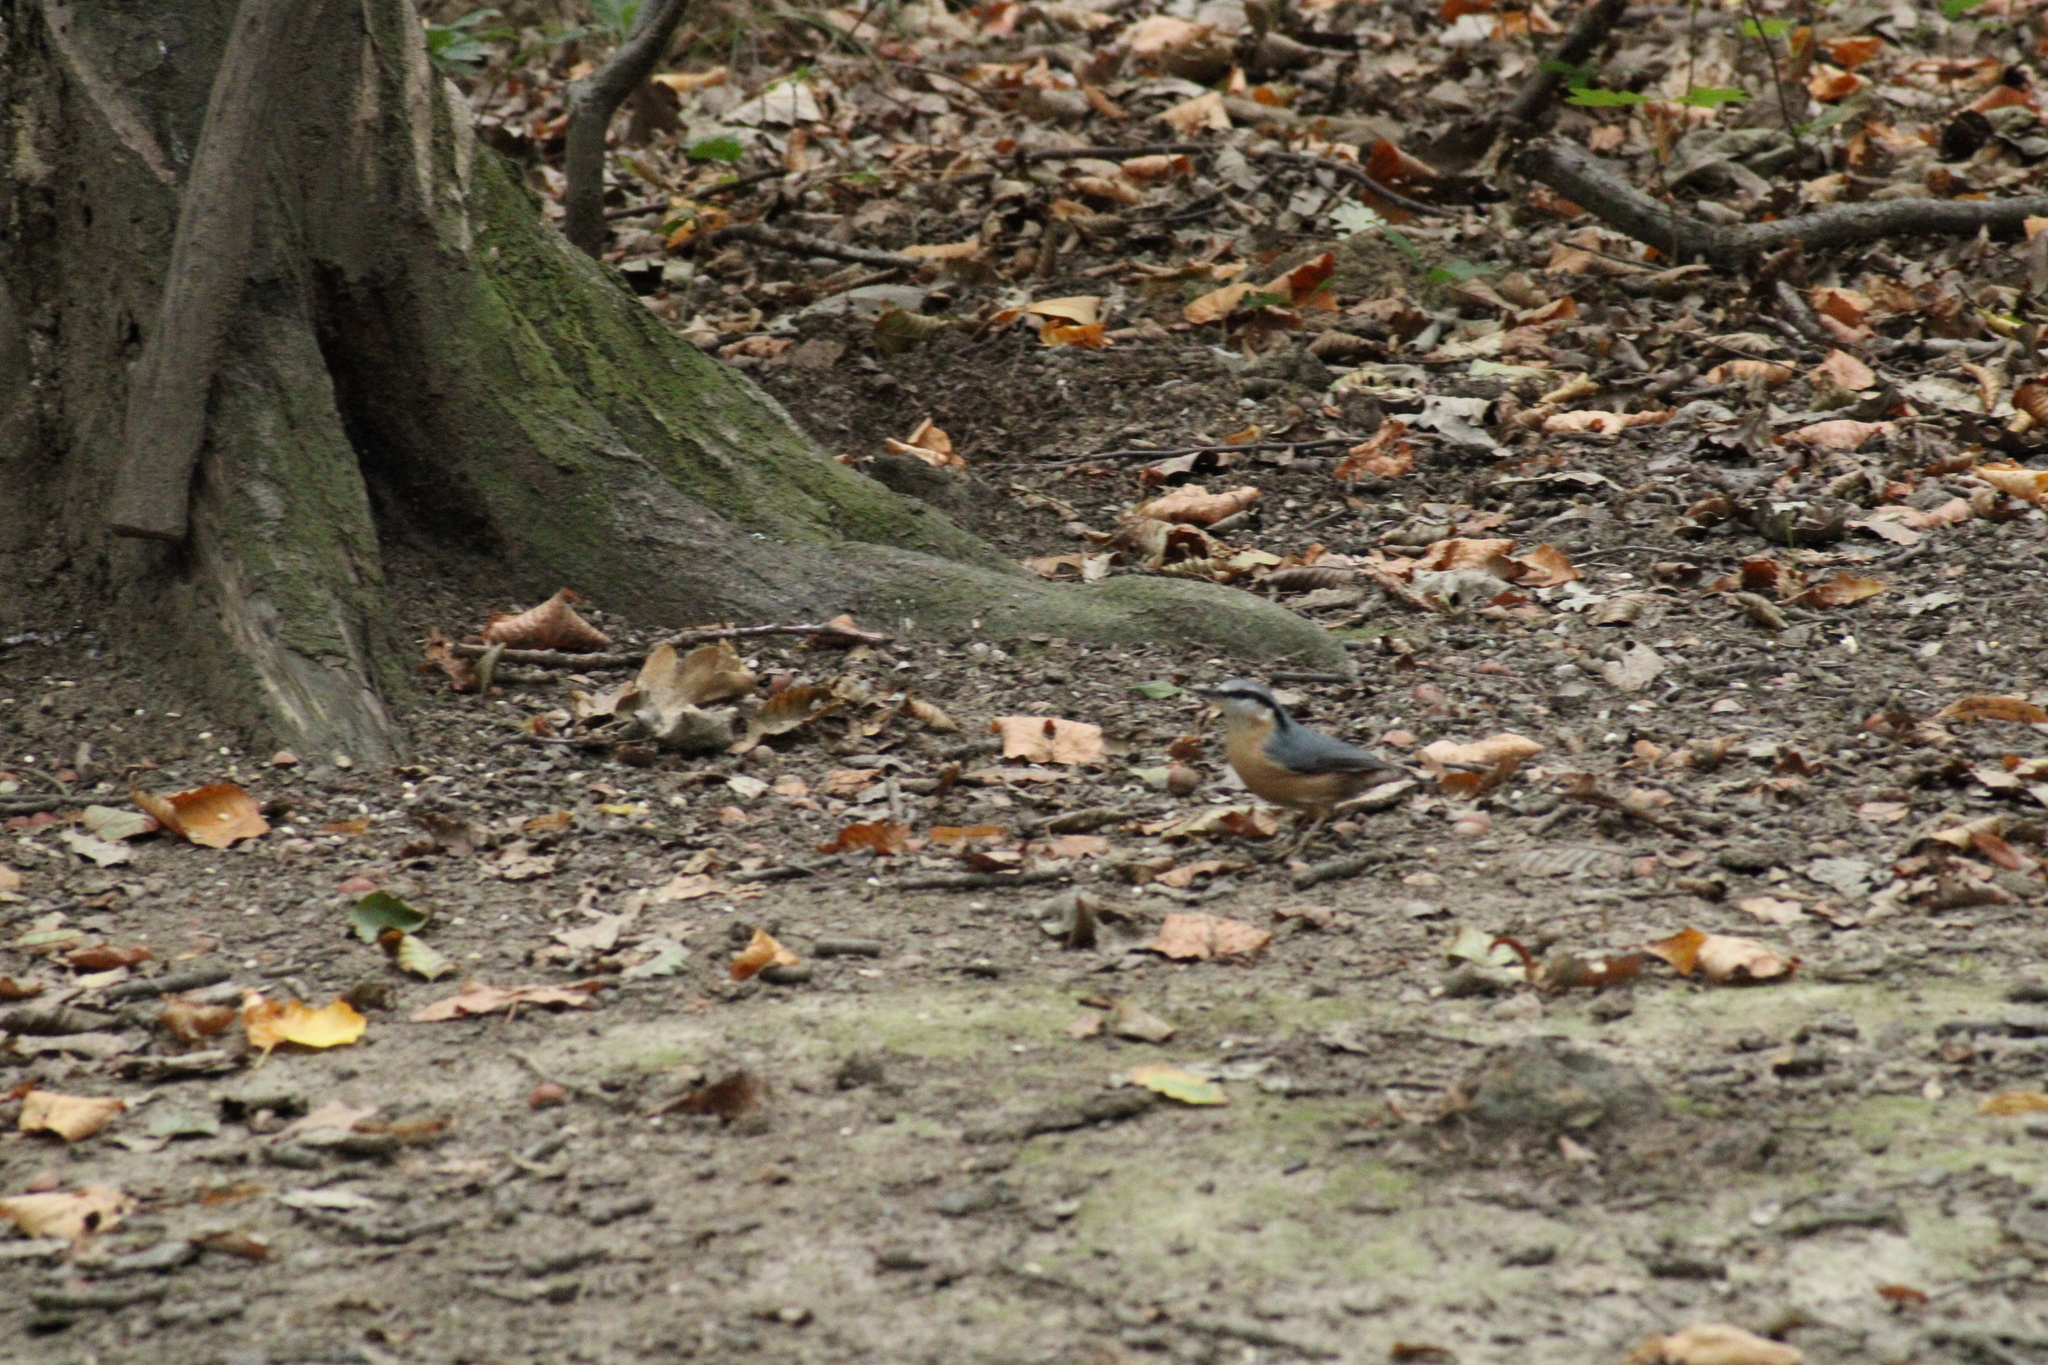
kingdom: Animalia
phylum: Chordata
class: Aves
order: Passeriformes
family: Sittidae
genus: Sitta
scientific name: Sitta europaea
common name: Eurasian nuthatch
